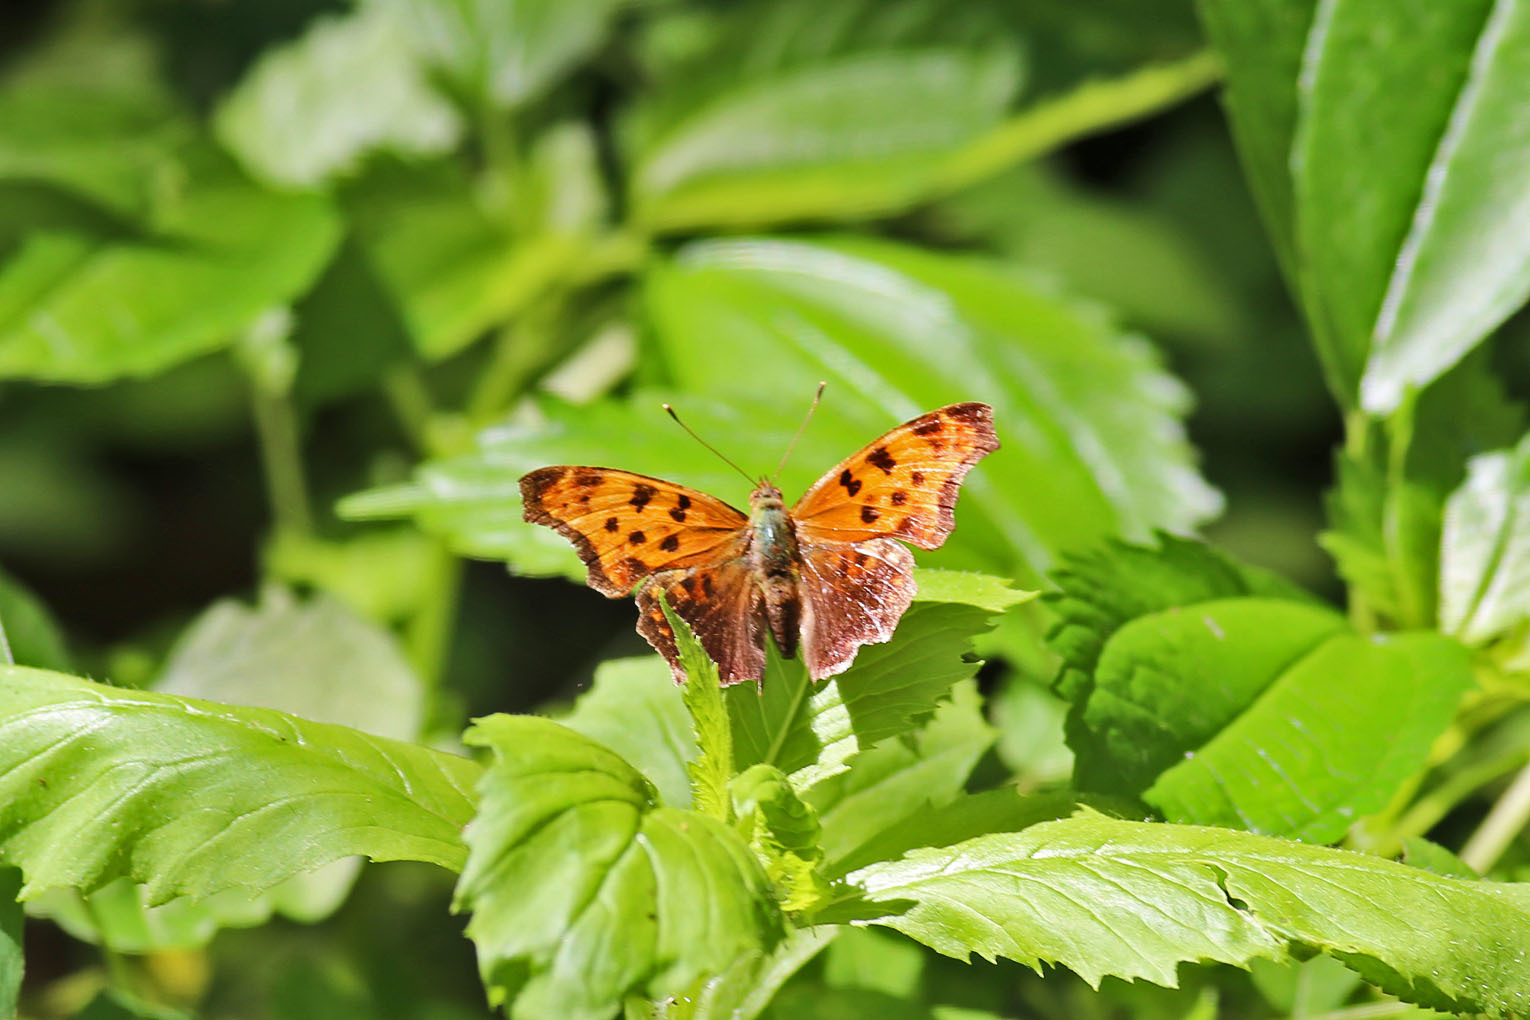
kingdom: Animalia
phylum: Arthropoda
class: Insecta
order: Lepidoptera
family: Nymphalidae
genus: Polygonia
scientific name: Polygonia comma
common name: Eastern comma
